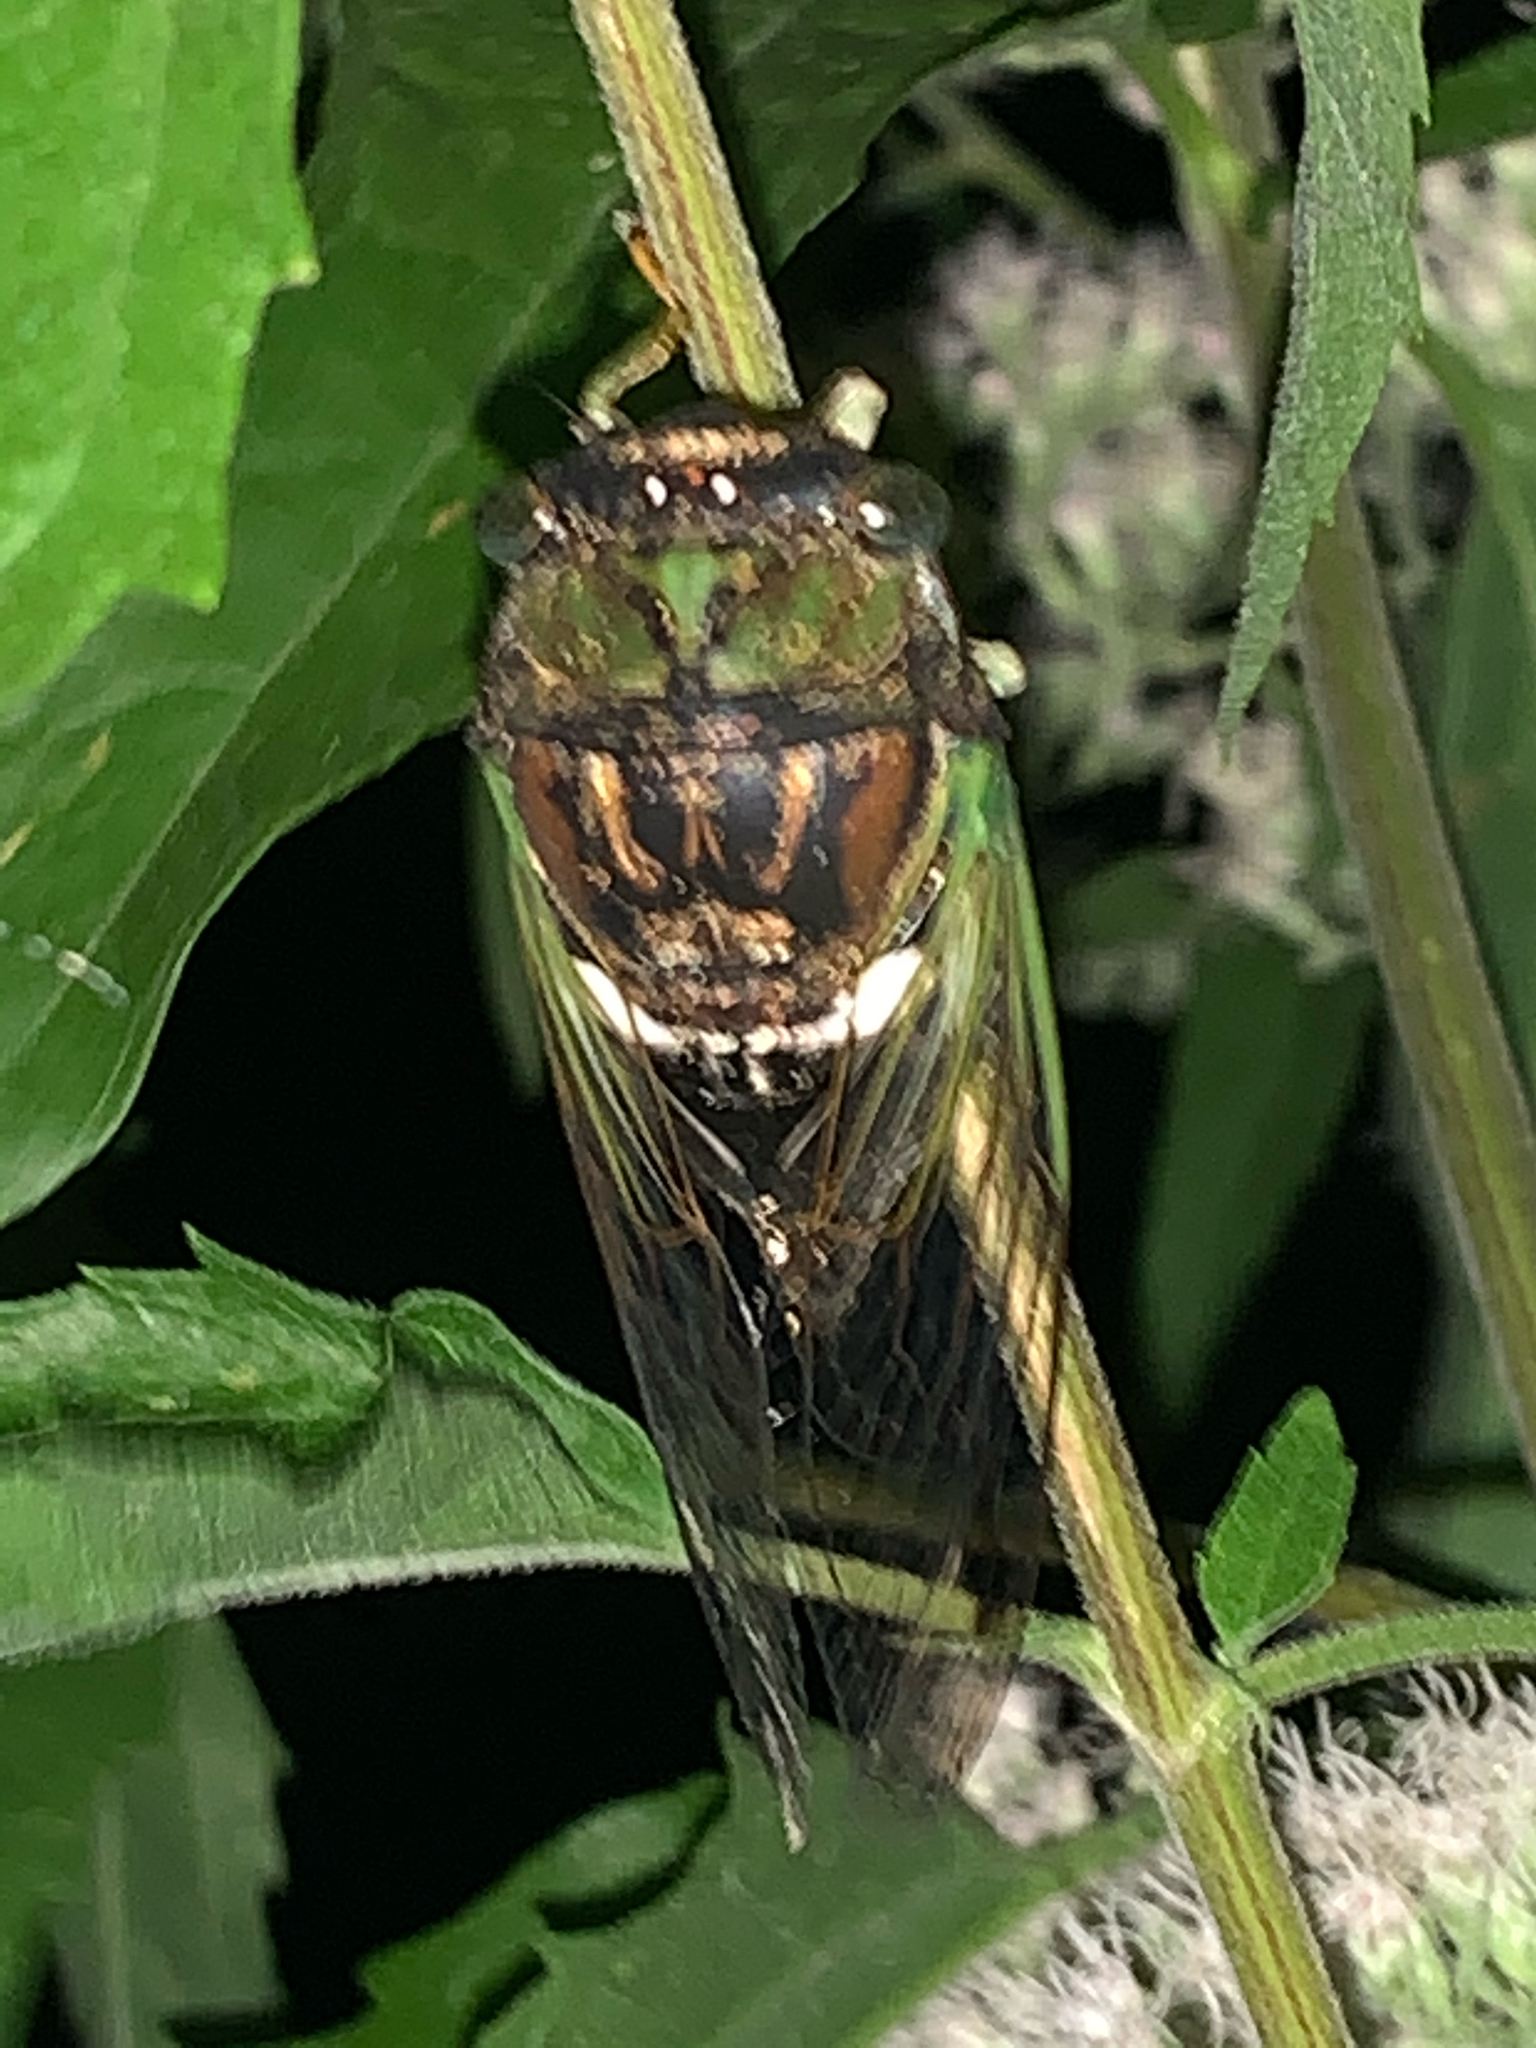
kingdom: Animalia
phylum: Arthropoda
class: Insecta
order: Hemiptera
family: Cicadidae
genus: Neotibicen
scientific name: Neotibicen tibicen
